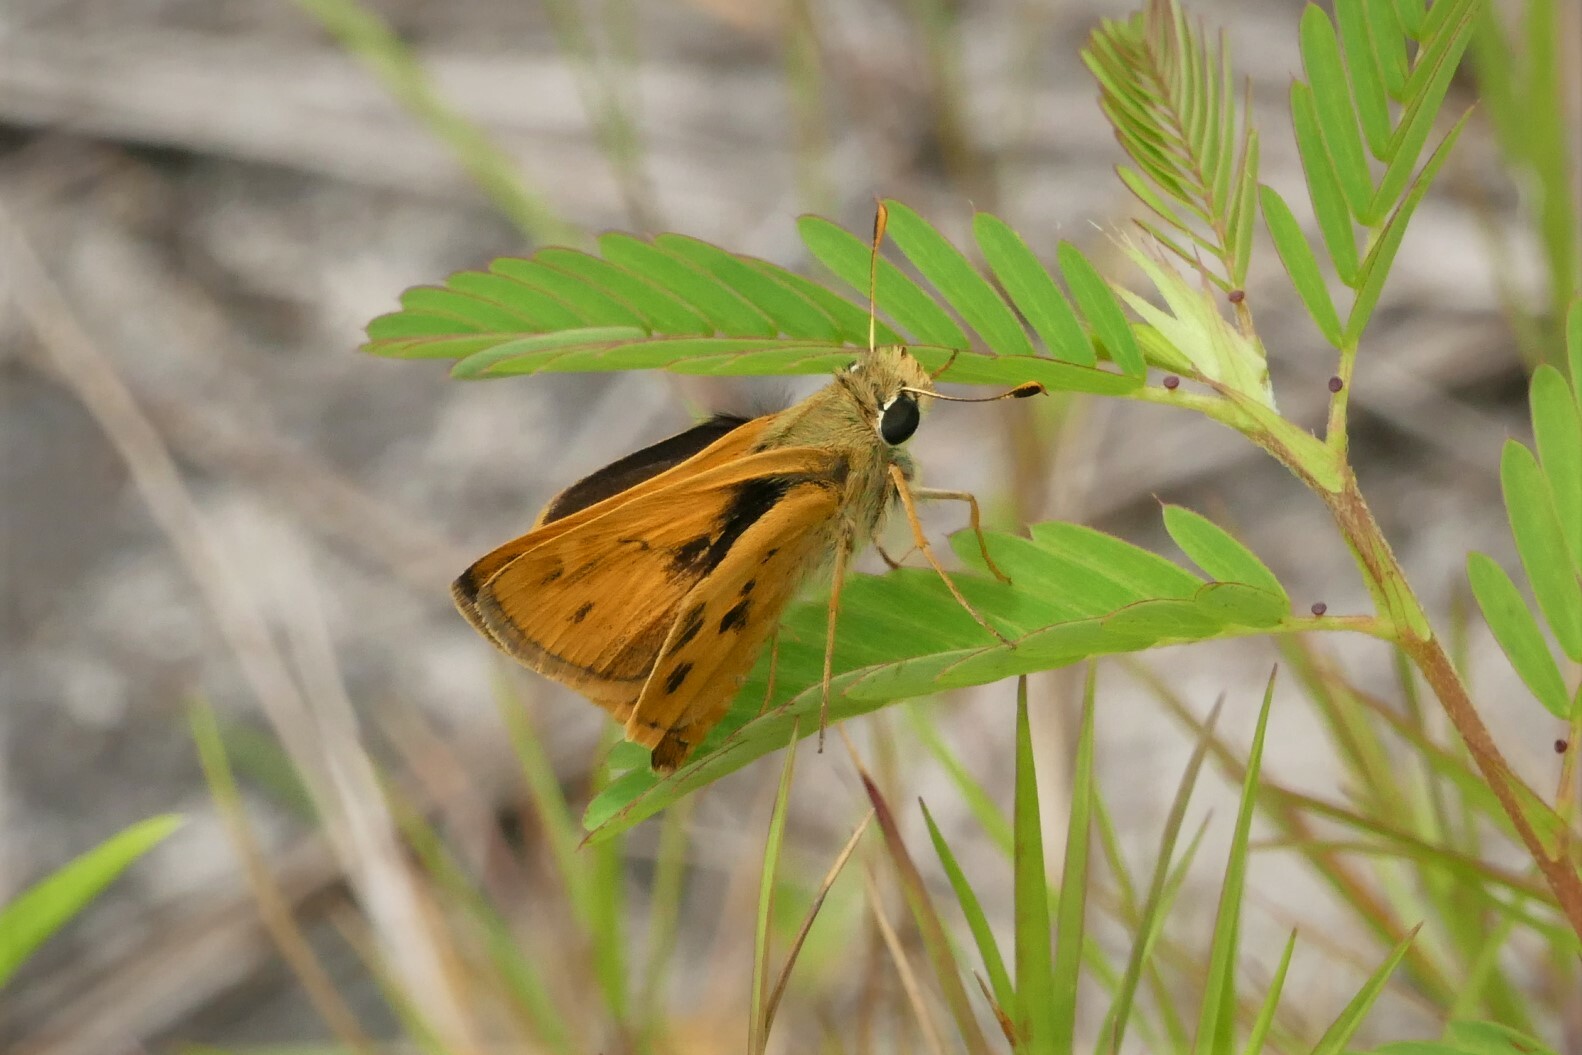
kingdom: Animalia
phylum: Arthropoda
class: Insecta
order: Lepidoptera
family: Hesperiidae
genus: Polites
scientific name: Polites vibex
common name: Whirlabout
